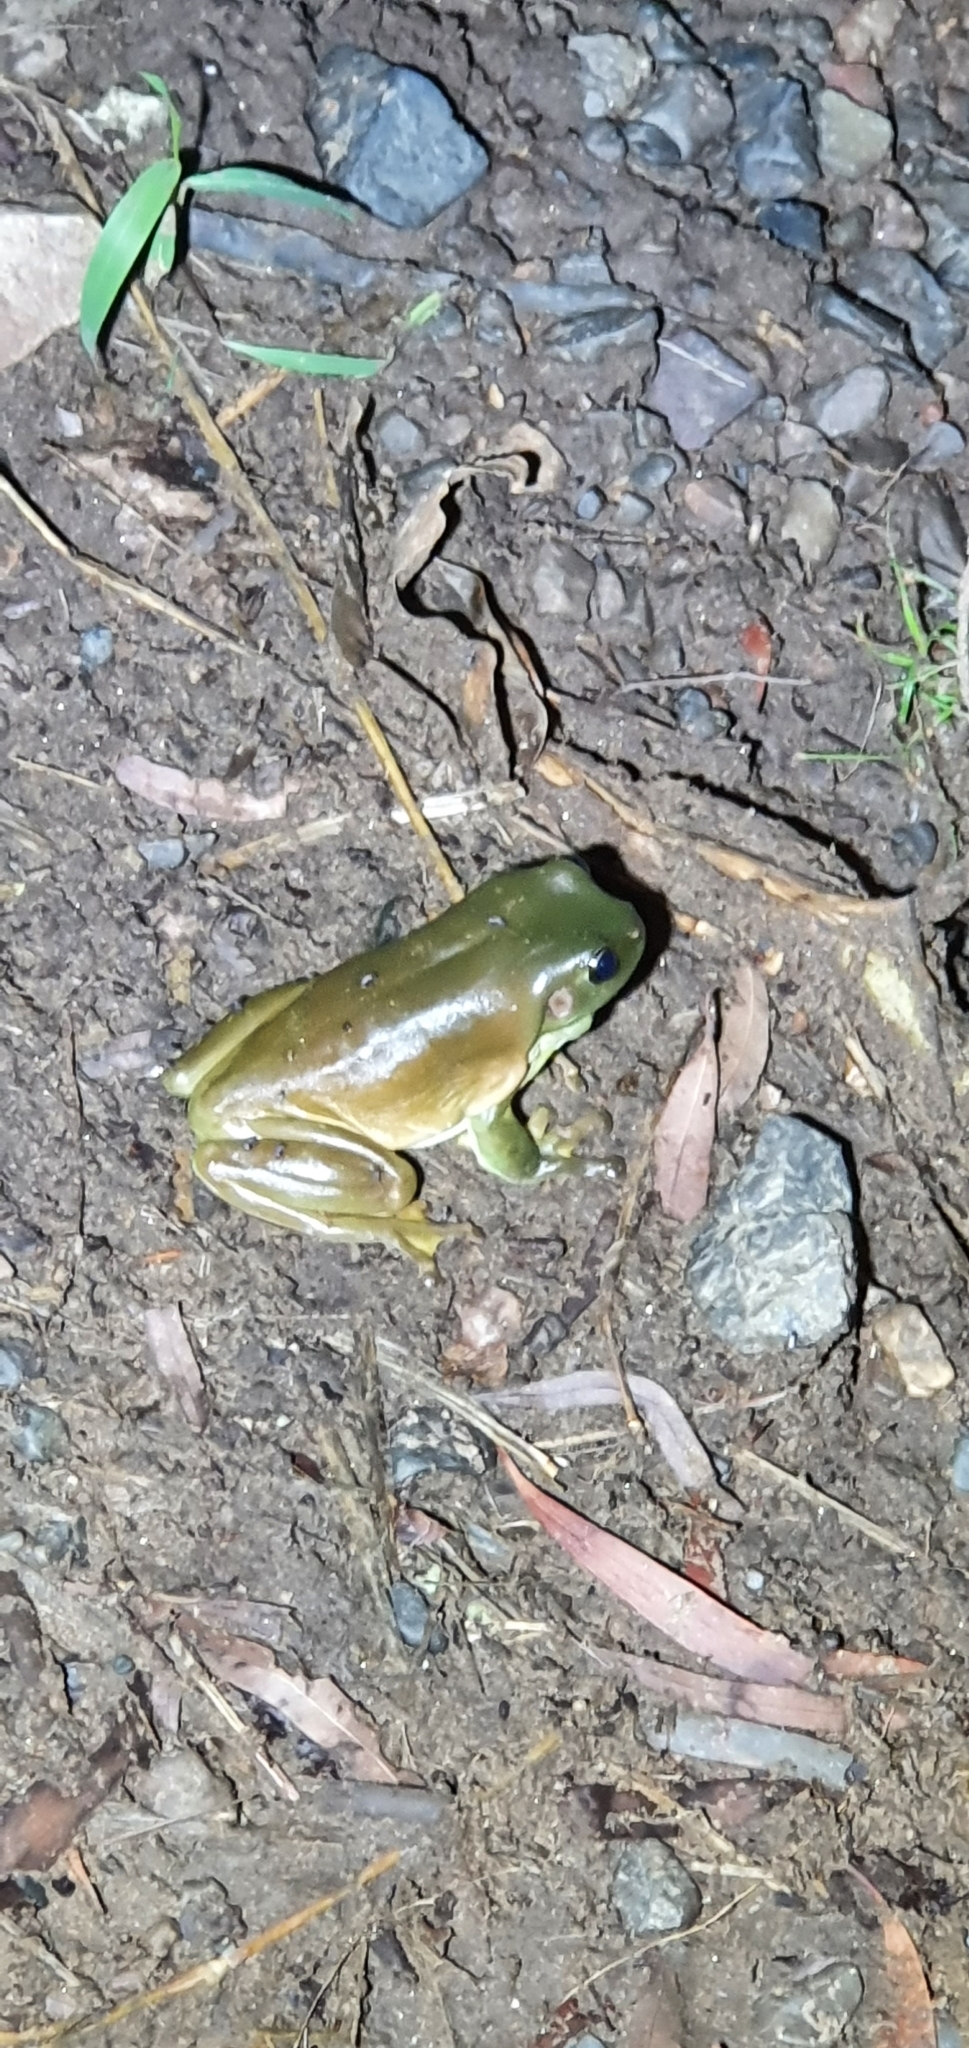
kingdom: Animalia
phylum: Chordata
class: Amphibia
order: Anura
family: Pelodryadidae
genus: Ranoidea
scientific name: Ranoidea caerulea
